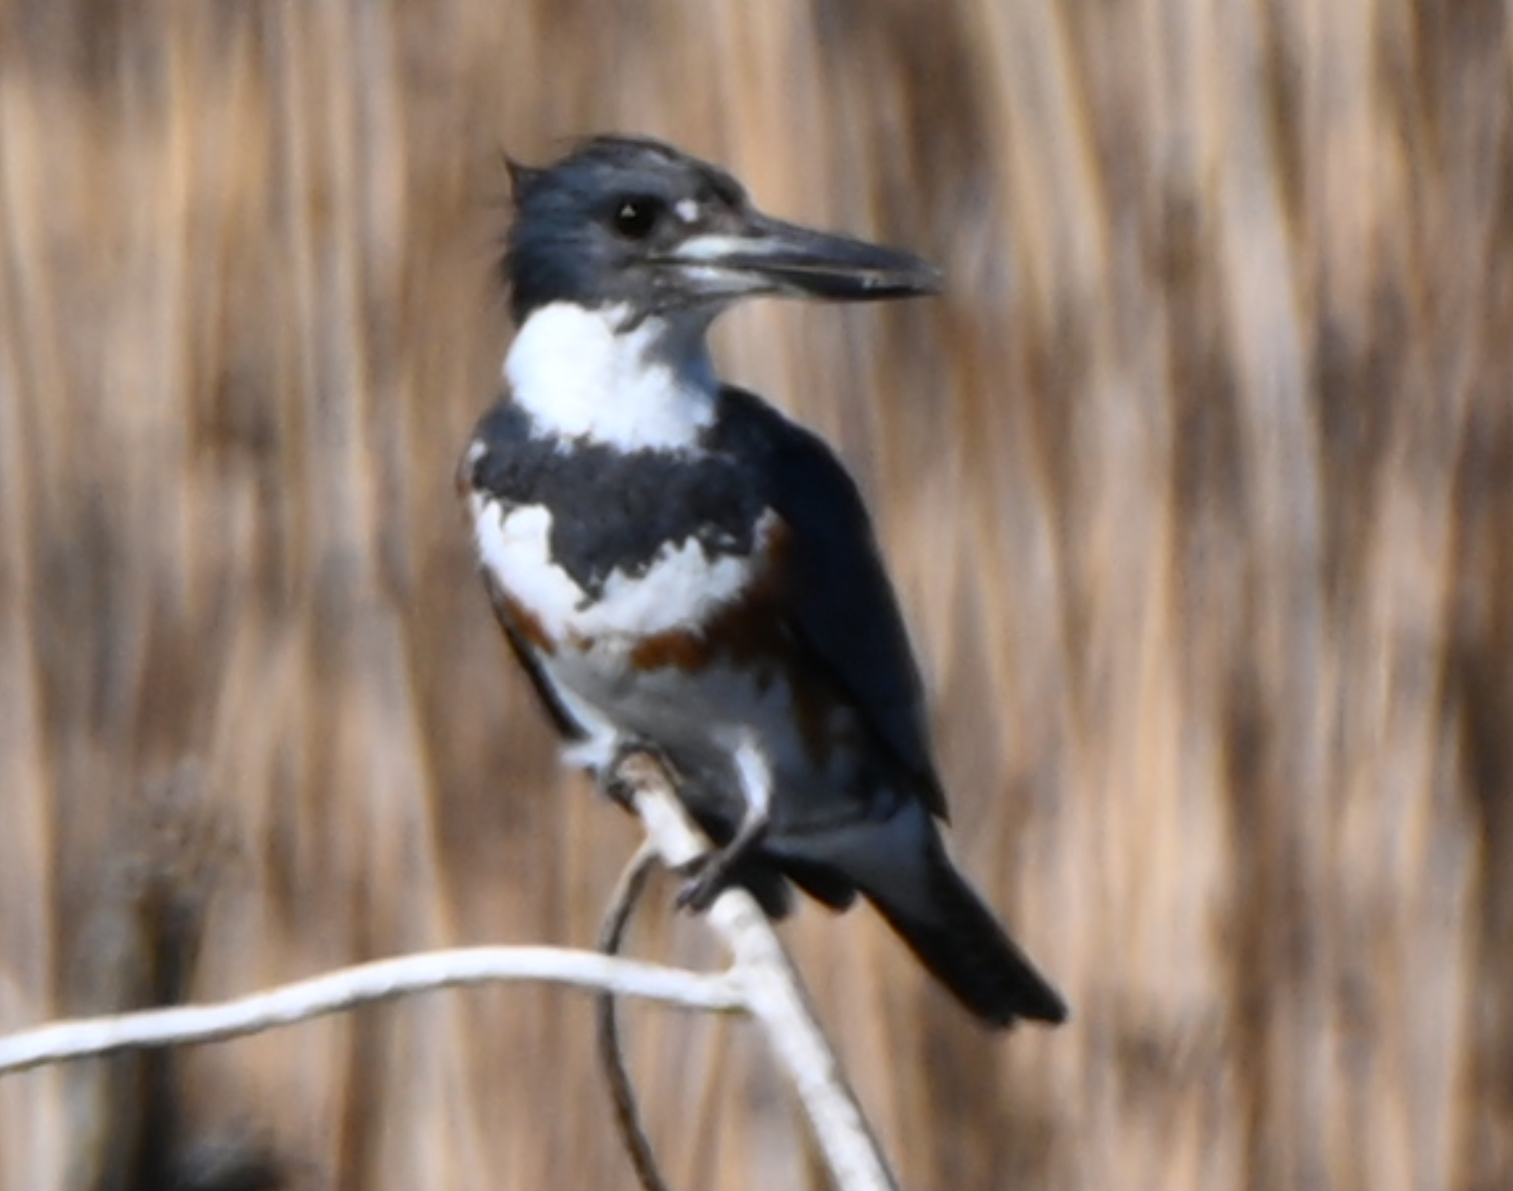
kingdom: Animalia
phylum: Chordata
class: Aves
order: Coraciiformes
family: Alcedinidae
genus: Megaceryle
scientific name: Megaceryle alcyon
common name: Belted kingfisher
